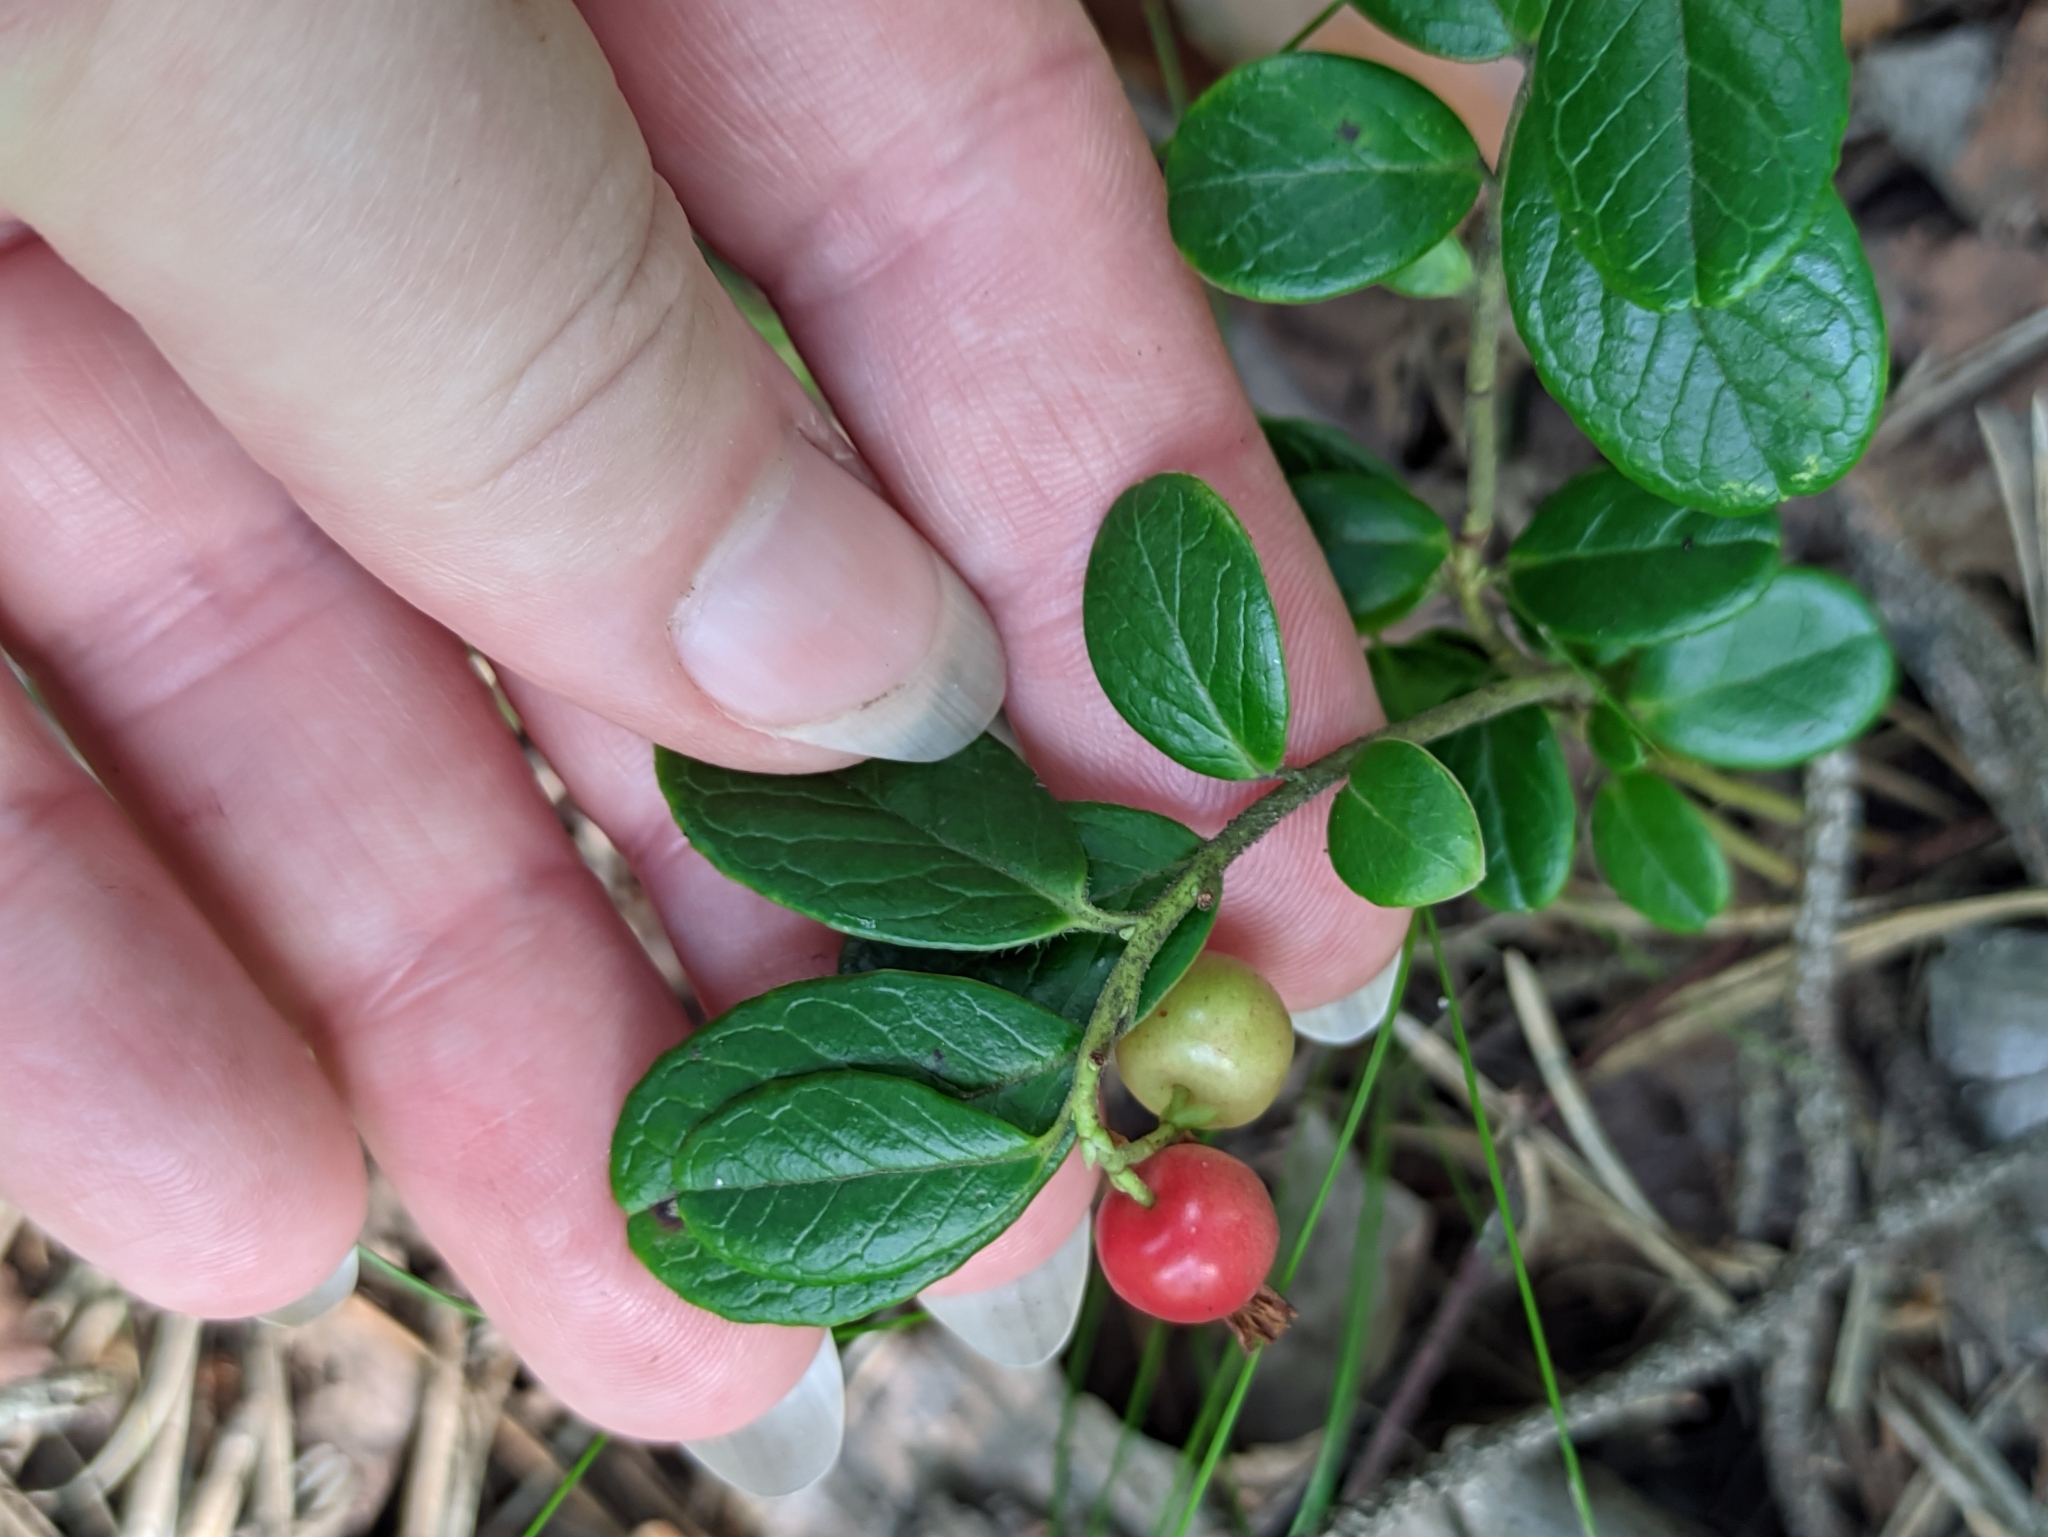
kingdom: Plantae
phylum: Tracheophyta
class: Magnoliopsida
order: Ericales
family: Ericaceae
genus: Vaccinium
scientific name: Vaccinium vitis-idaea
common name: Cowberry
